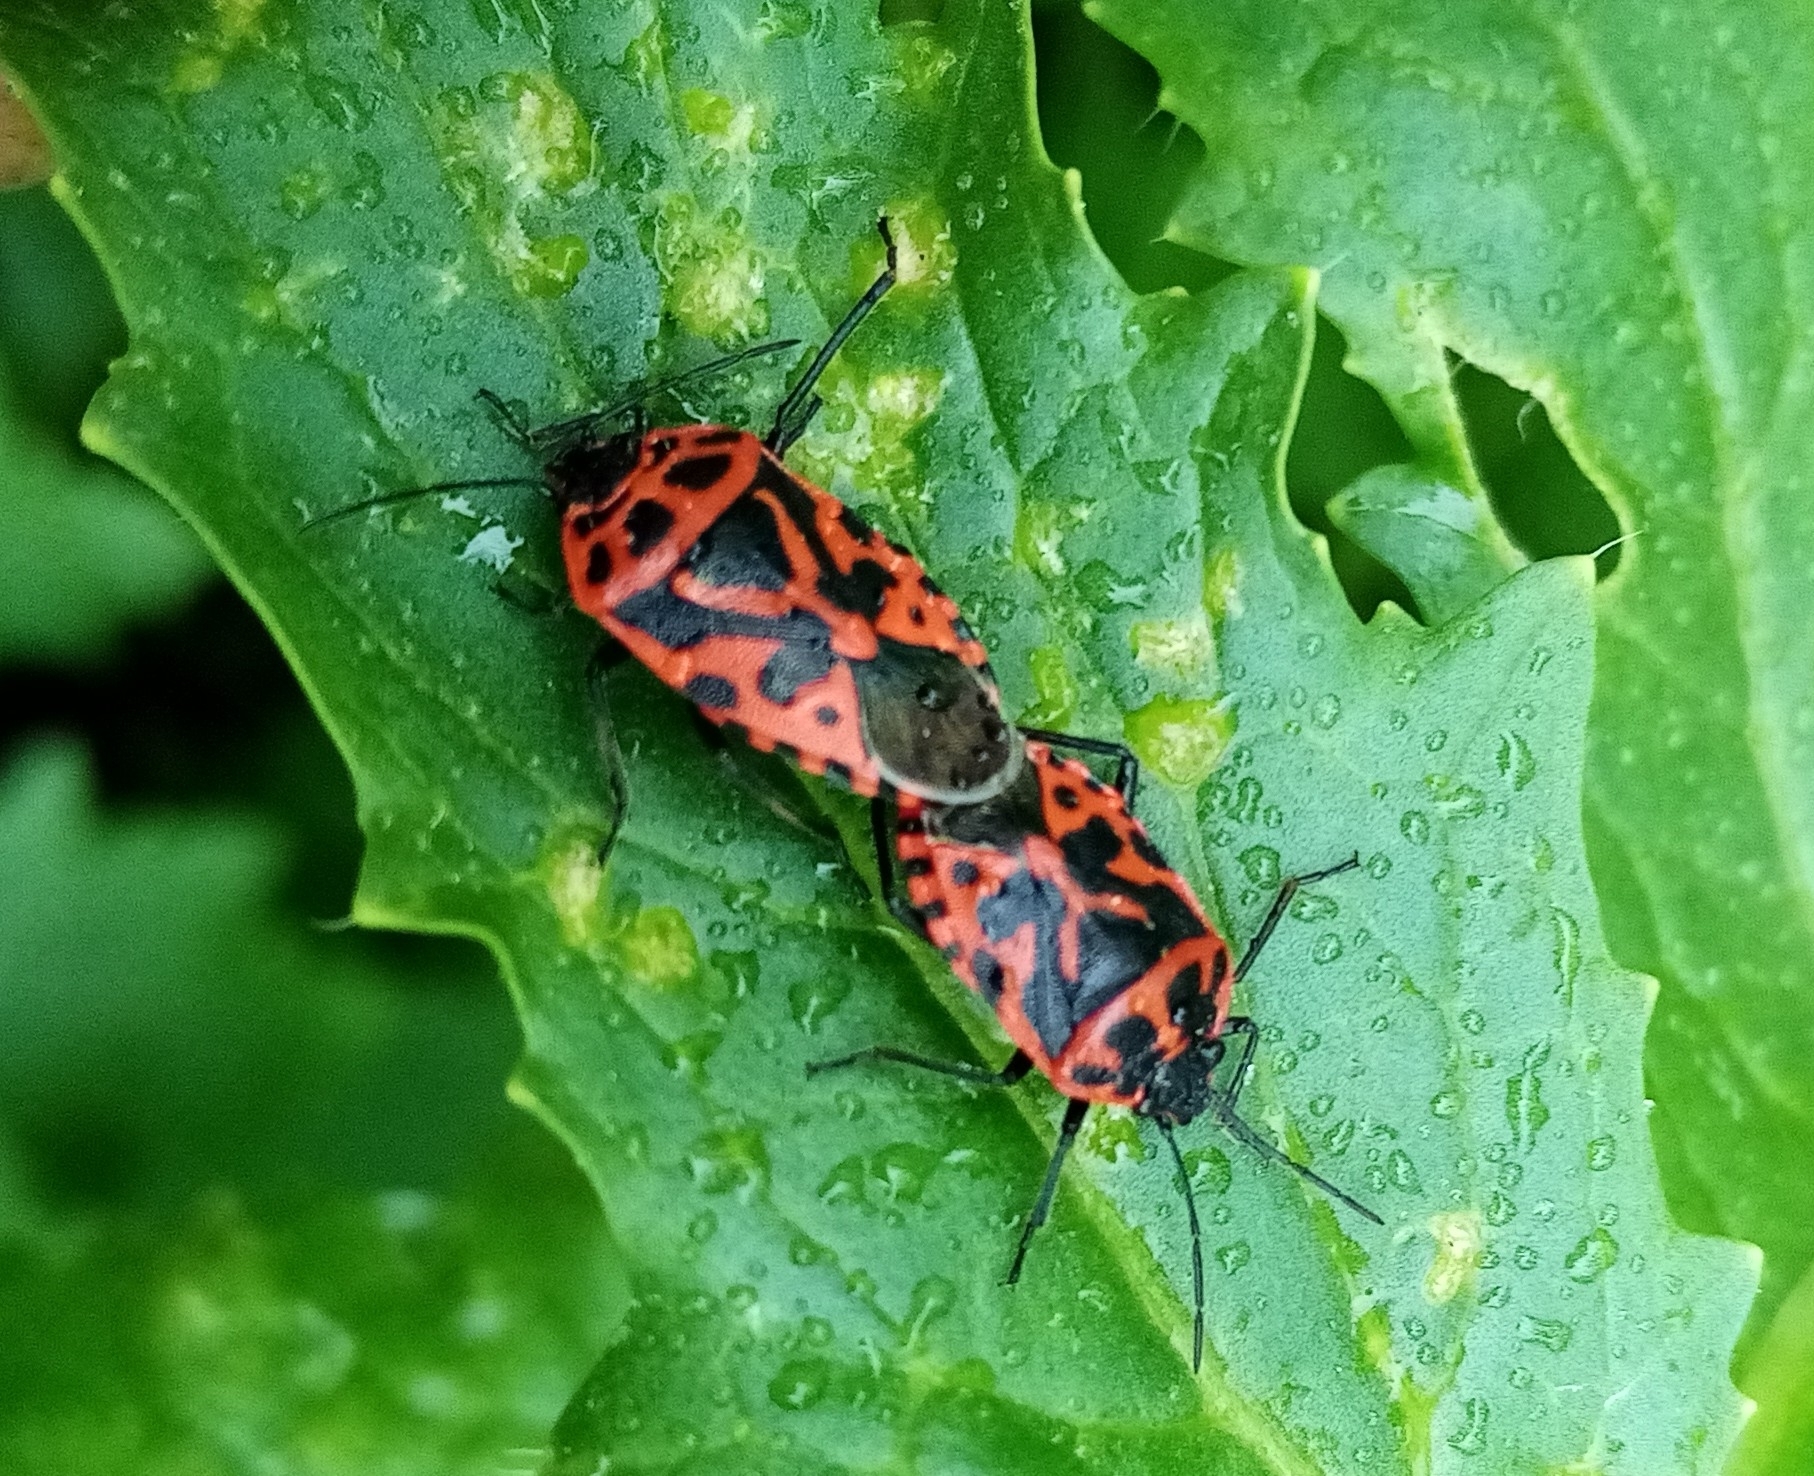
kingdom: Animalia
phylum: Arthropoda
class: Insecta
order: Hemiptera
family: Pentatomidae
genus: Eurydema
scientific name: Eurydema ventralis
